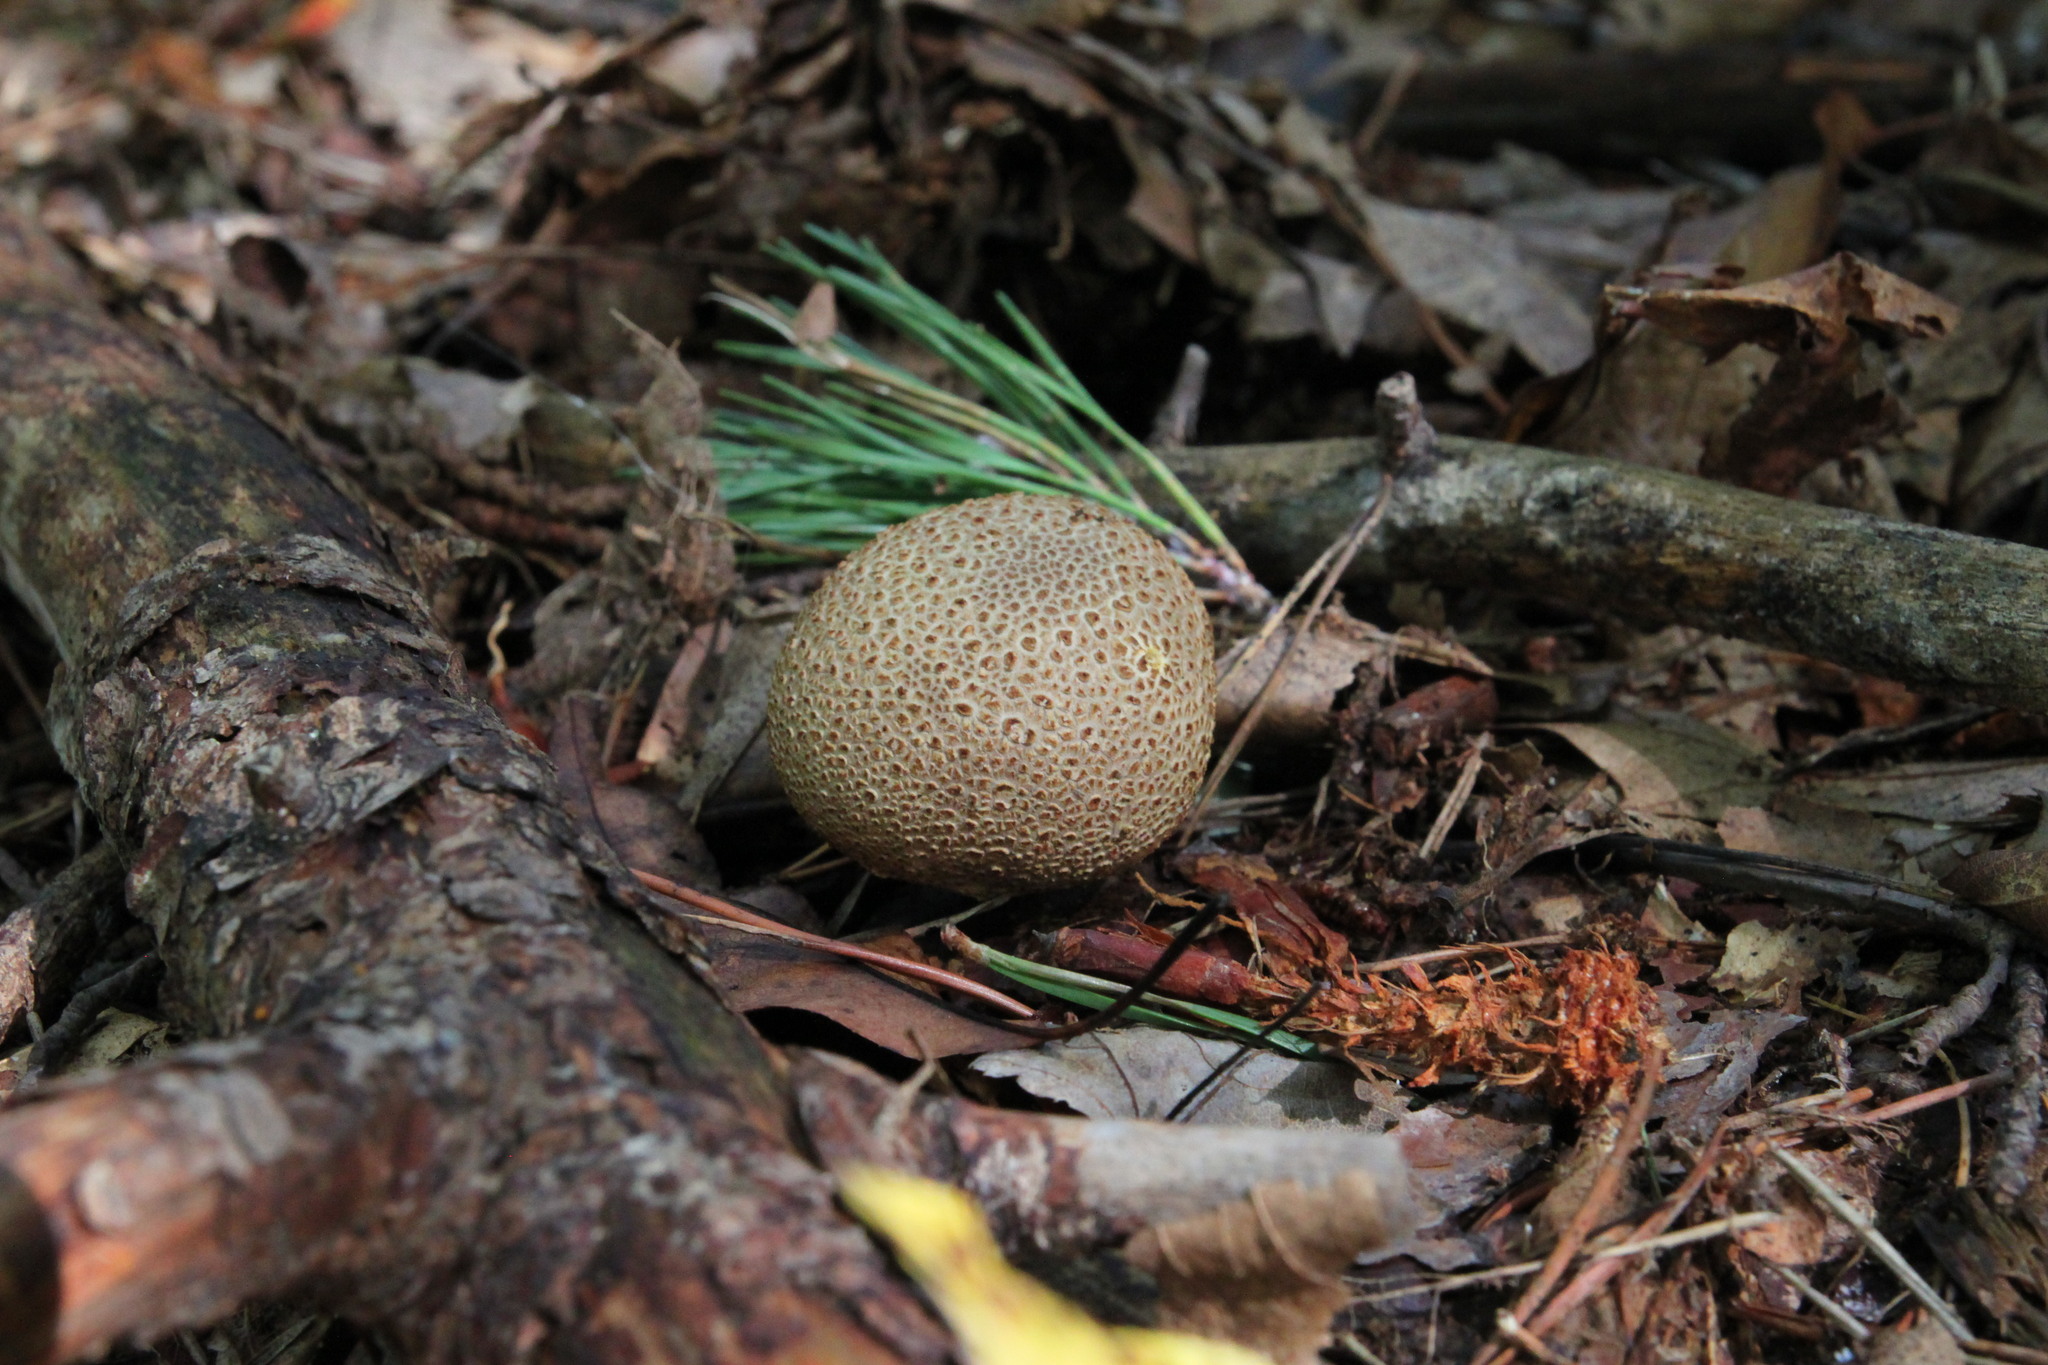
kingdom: Fungi
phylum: Basidiomycota
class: Agaricomycetes
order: Boletales
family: Sclerodermataceae
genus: Scleroderma
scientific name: Scleroderma citrinum
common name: Common earthball
